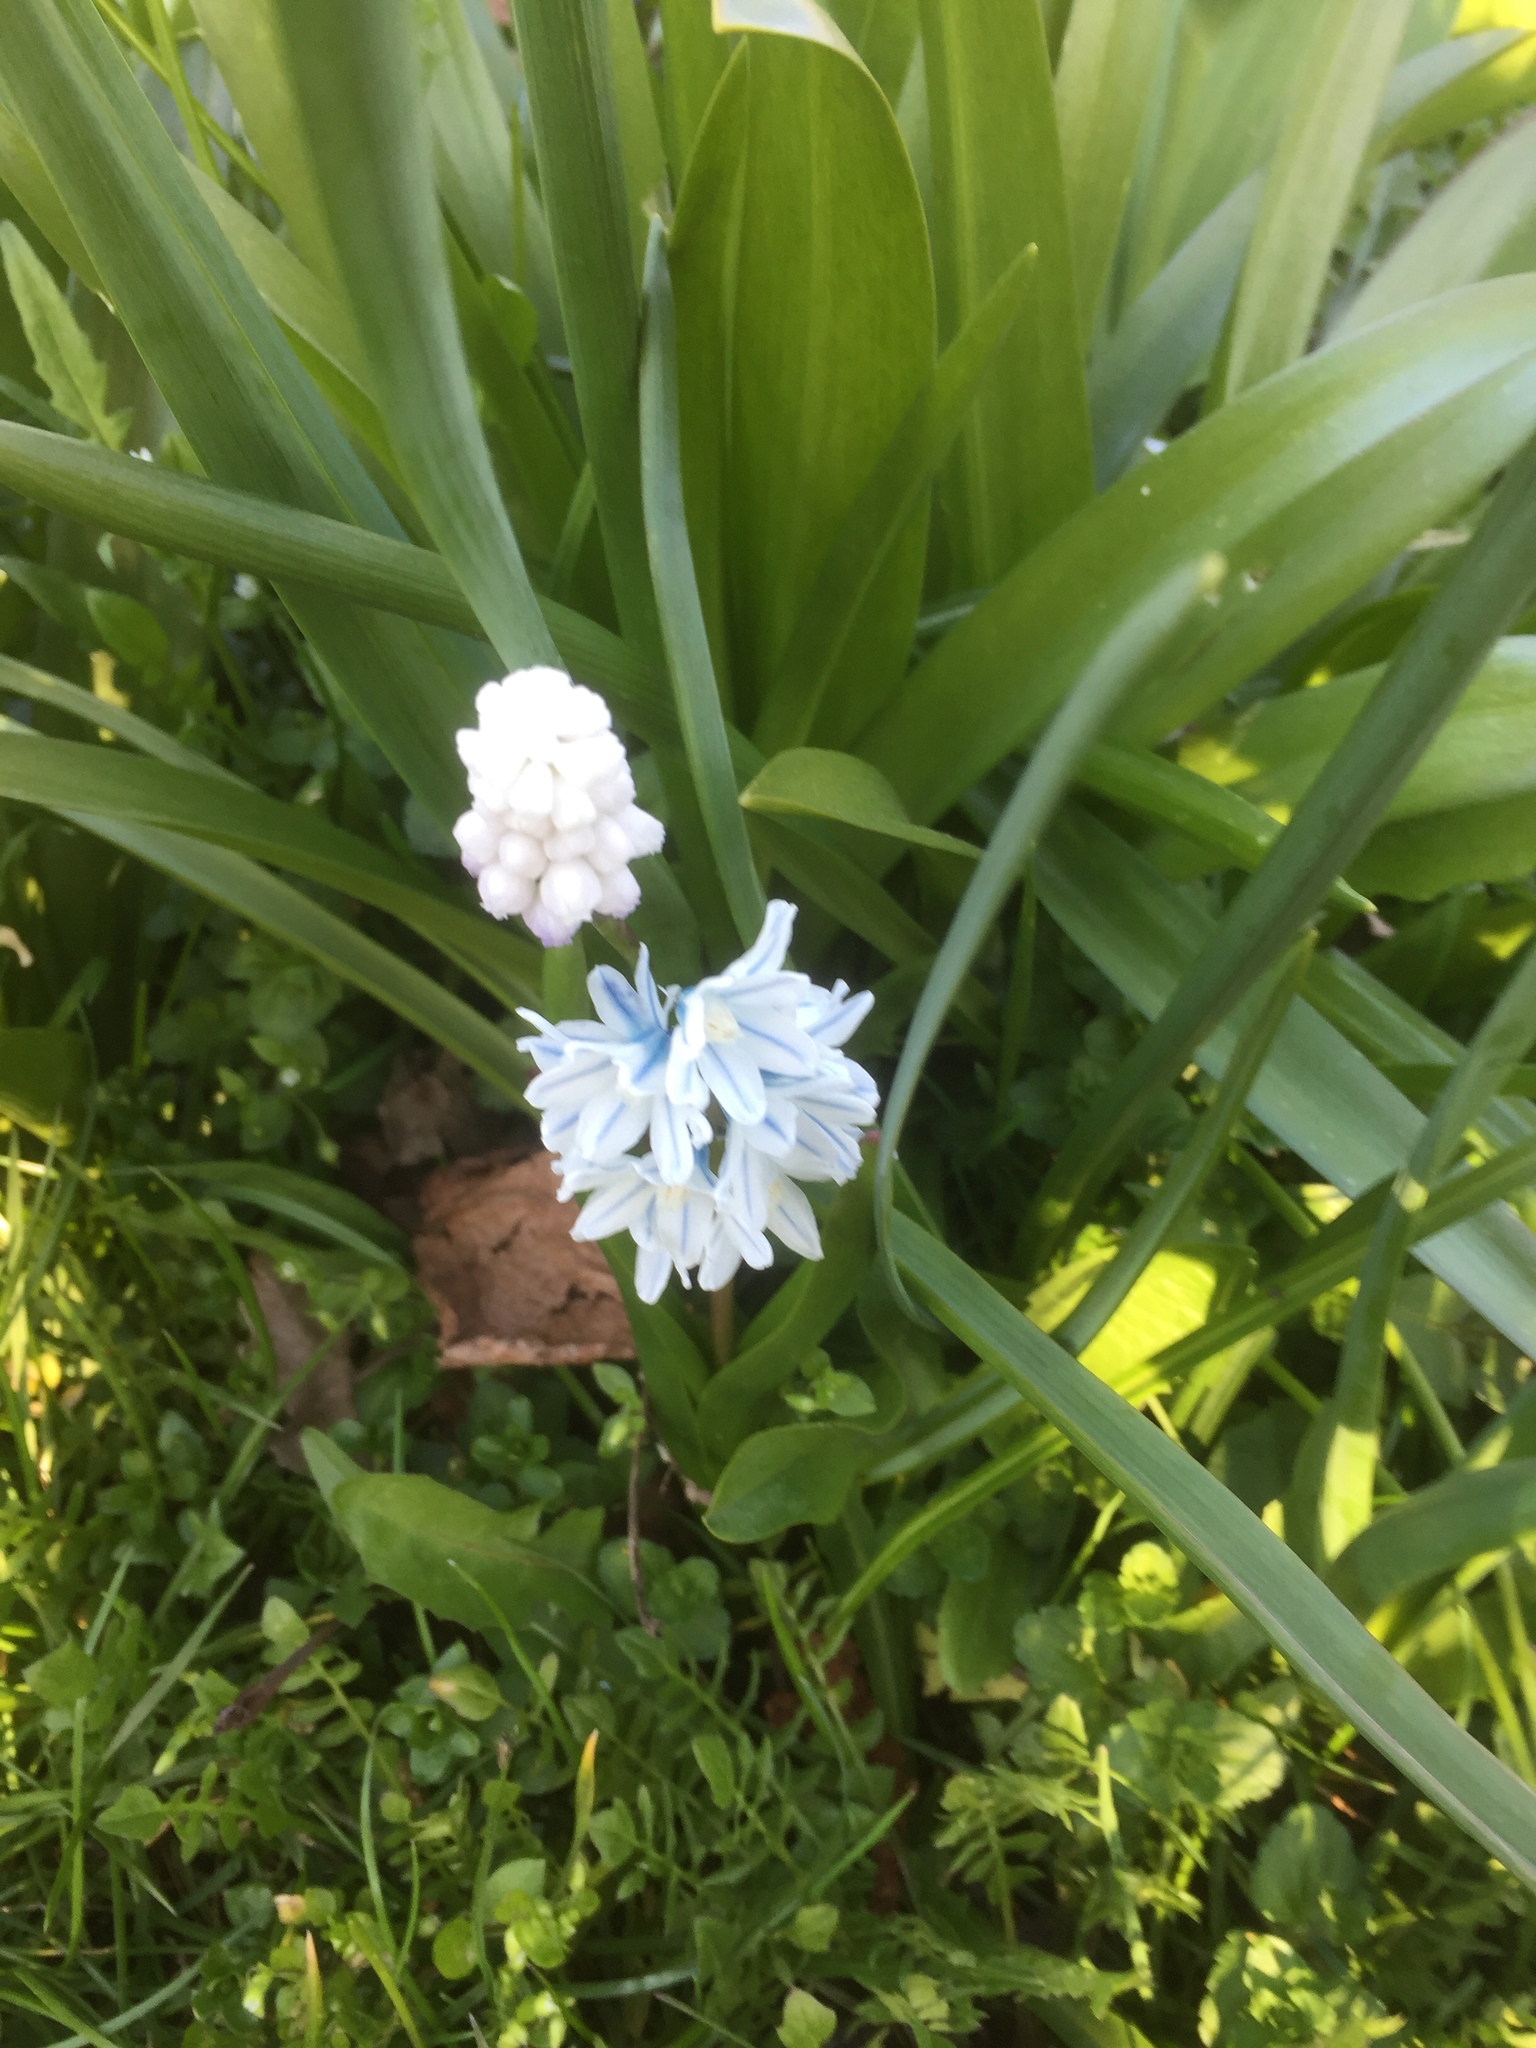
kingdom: Plantae
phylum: Tracheophyta
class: Liliopsida
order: Asparagales
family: Asparagaceae
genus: Puschkinia
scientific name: Puschkinia scilloides
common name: Striped squill
